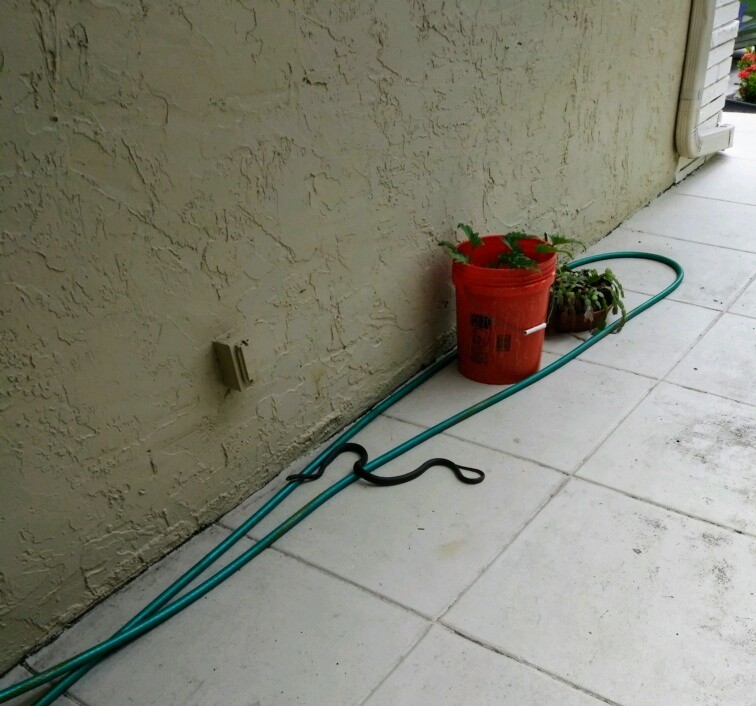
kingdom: Animalia
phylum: Chordata
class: Squamata
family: Colubridae
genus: Coluber
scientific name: Coluber constrictor
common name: Eastern racer
